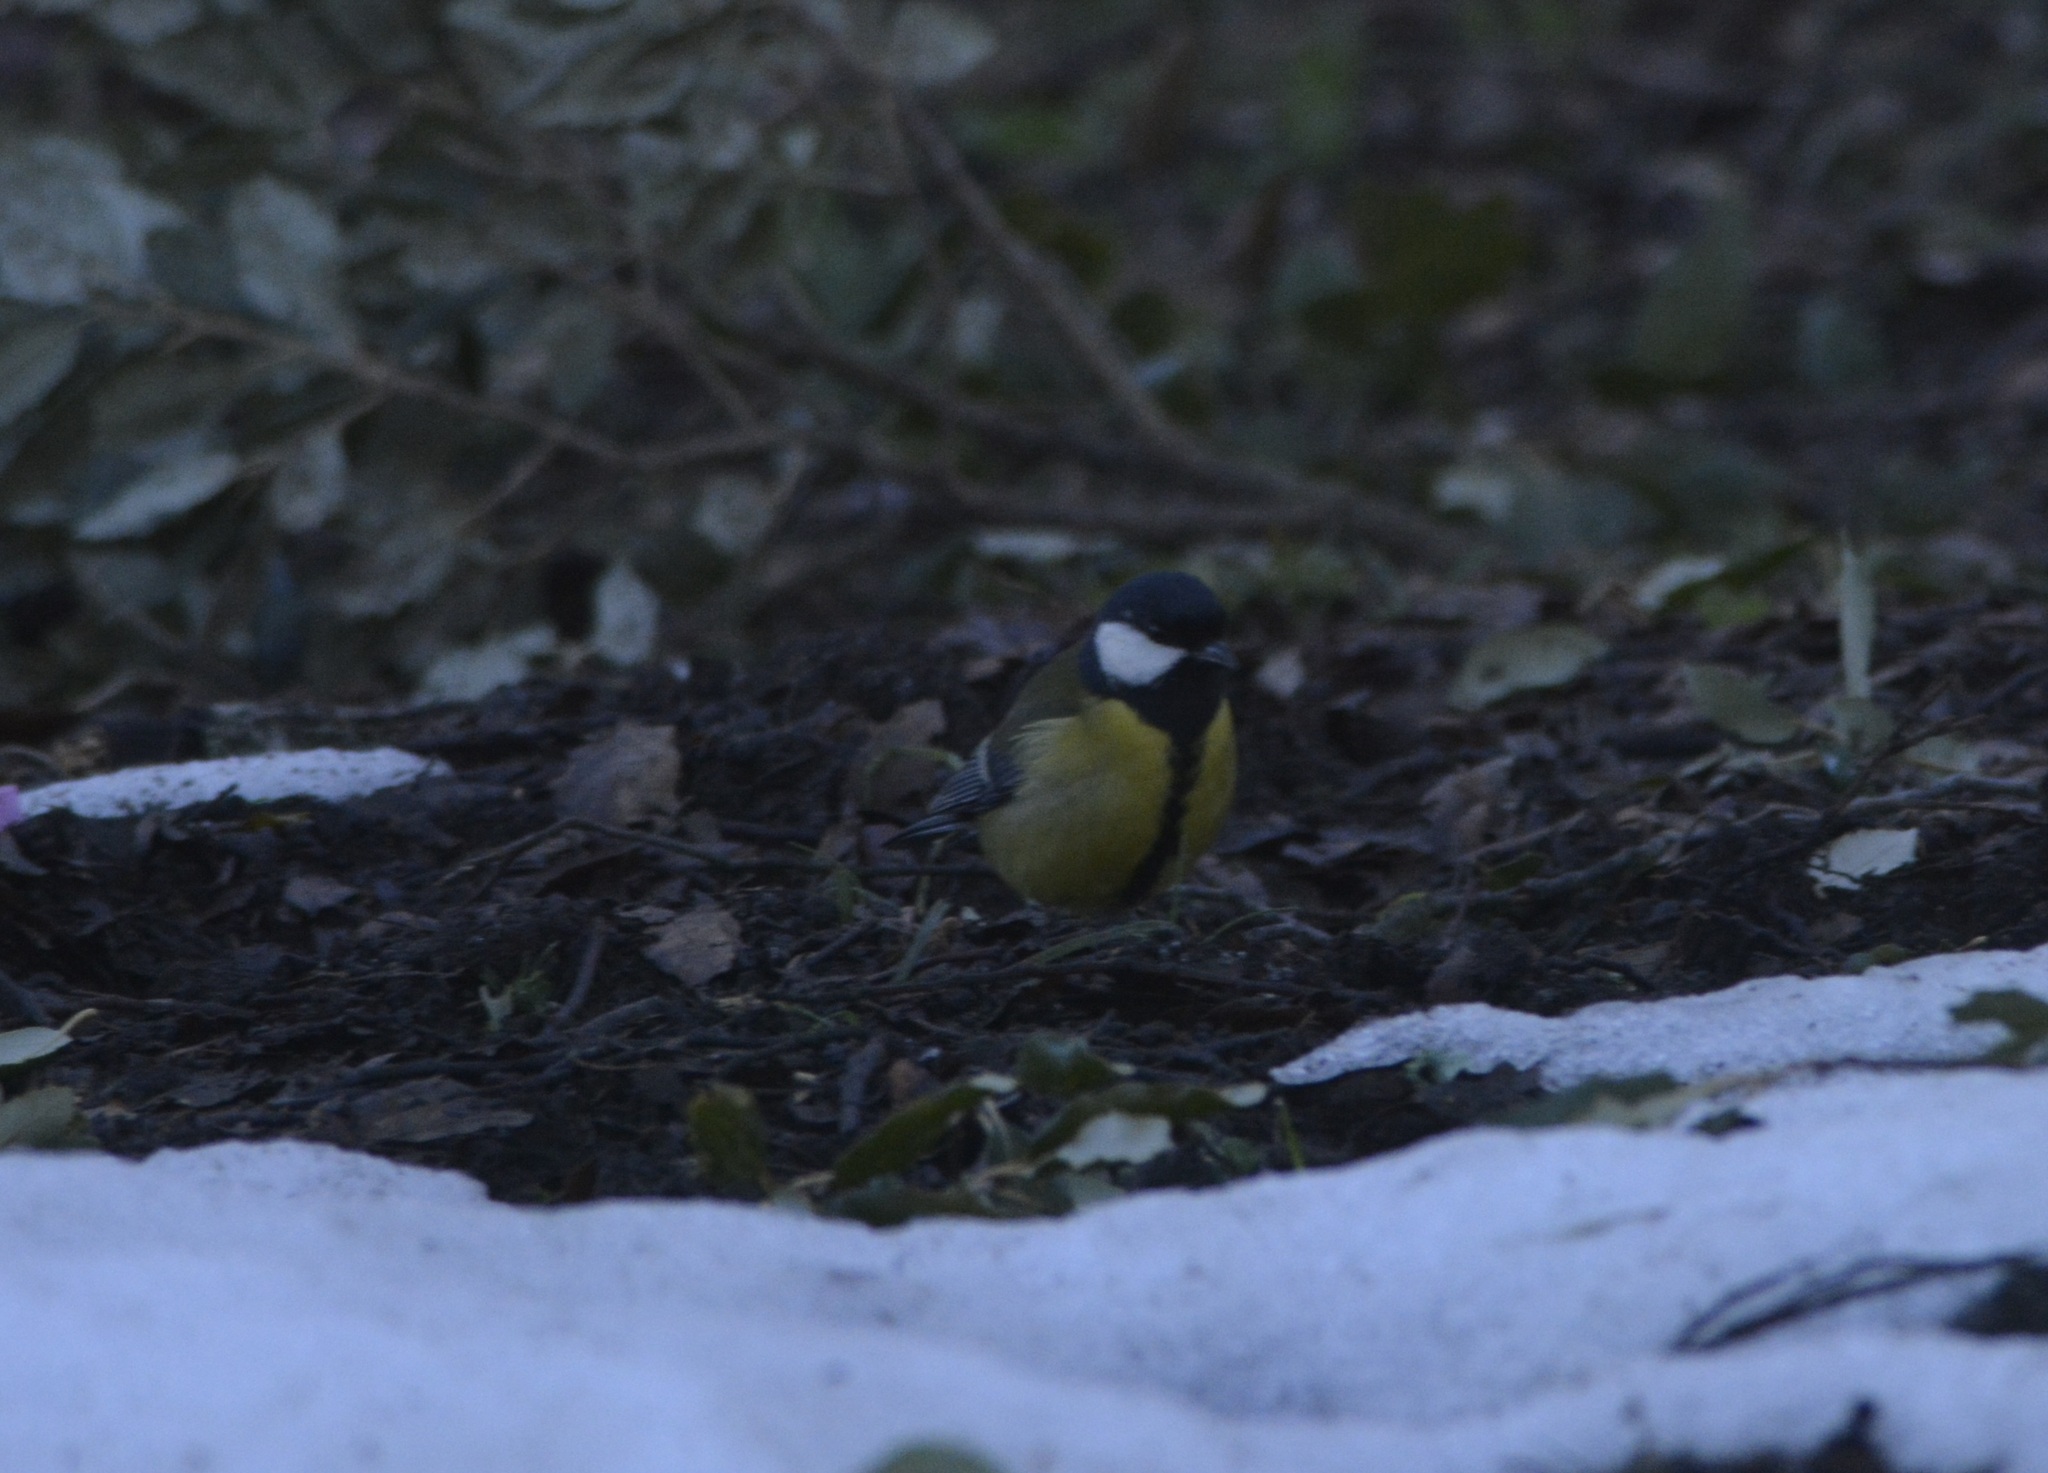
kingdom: Animalia
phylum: Chordata
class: Aves
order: Passeriformes
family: Paridae
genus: Parus
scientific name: Parus major
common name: Great tit
